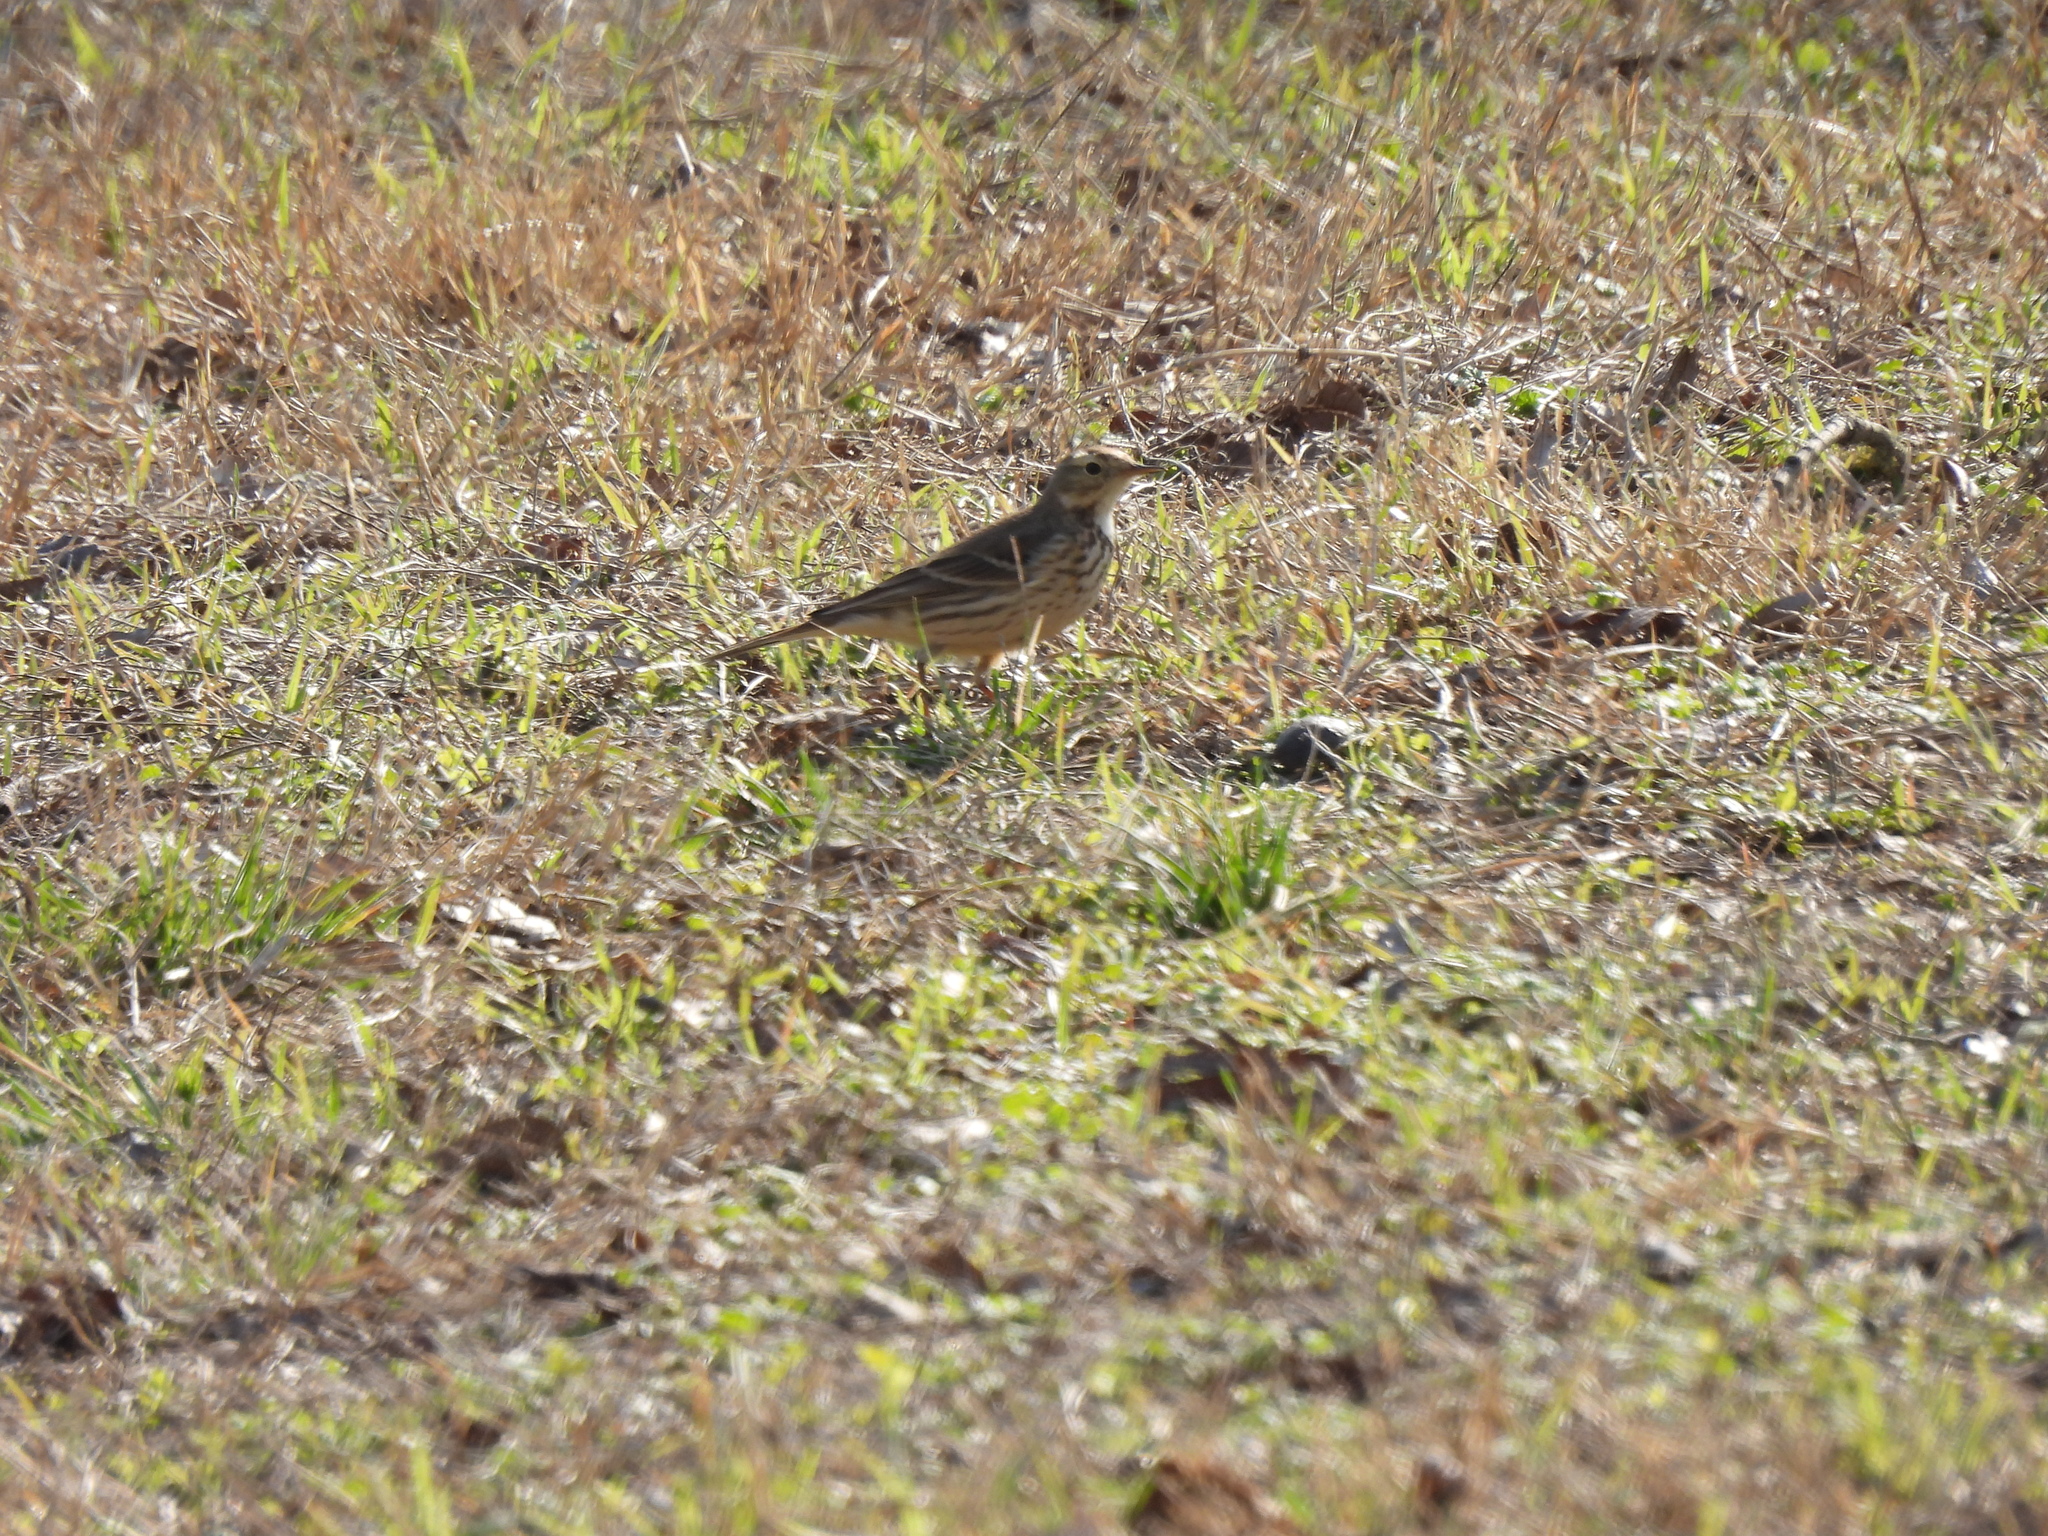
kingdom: Animalia
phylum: Chordata
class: Aves
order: Passeriformes
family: Motacillidae
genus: Anthus
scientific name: Anthus rubescens
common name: Buff-bellied pipit
